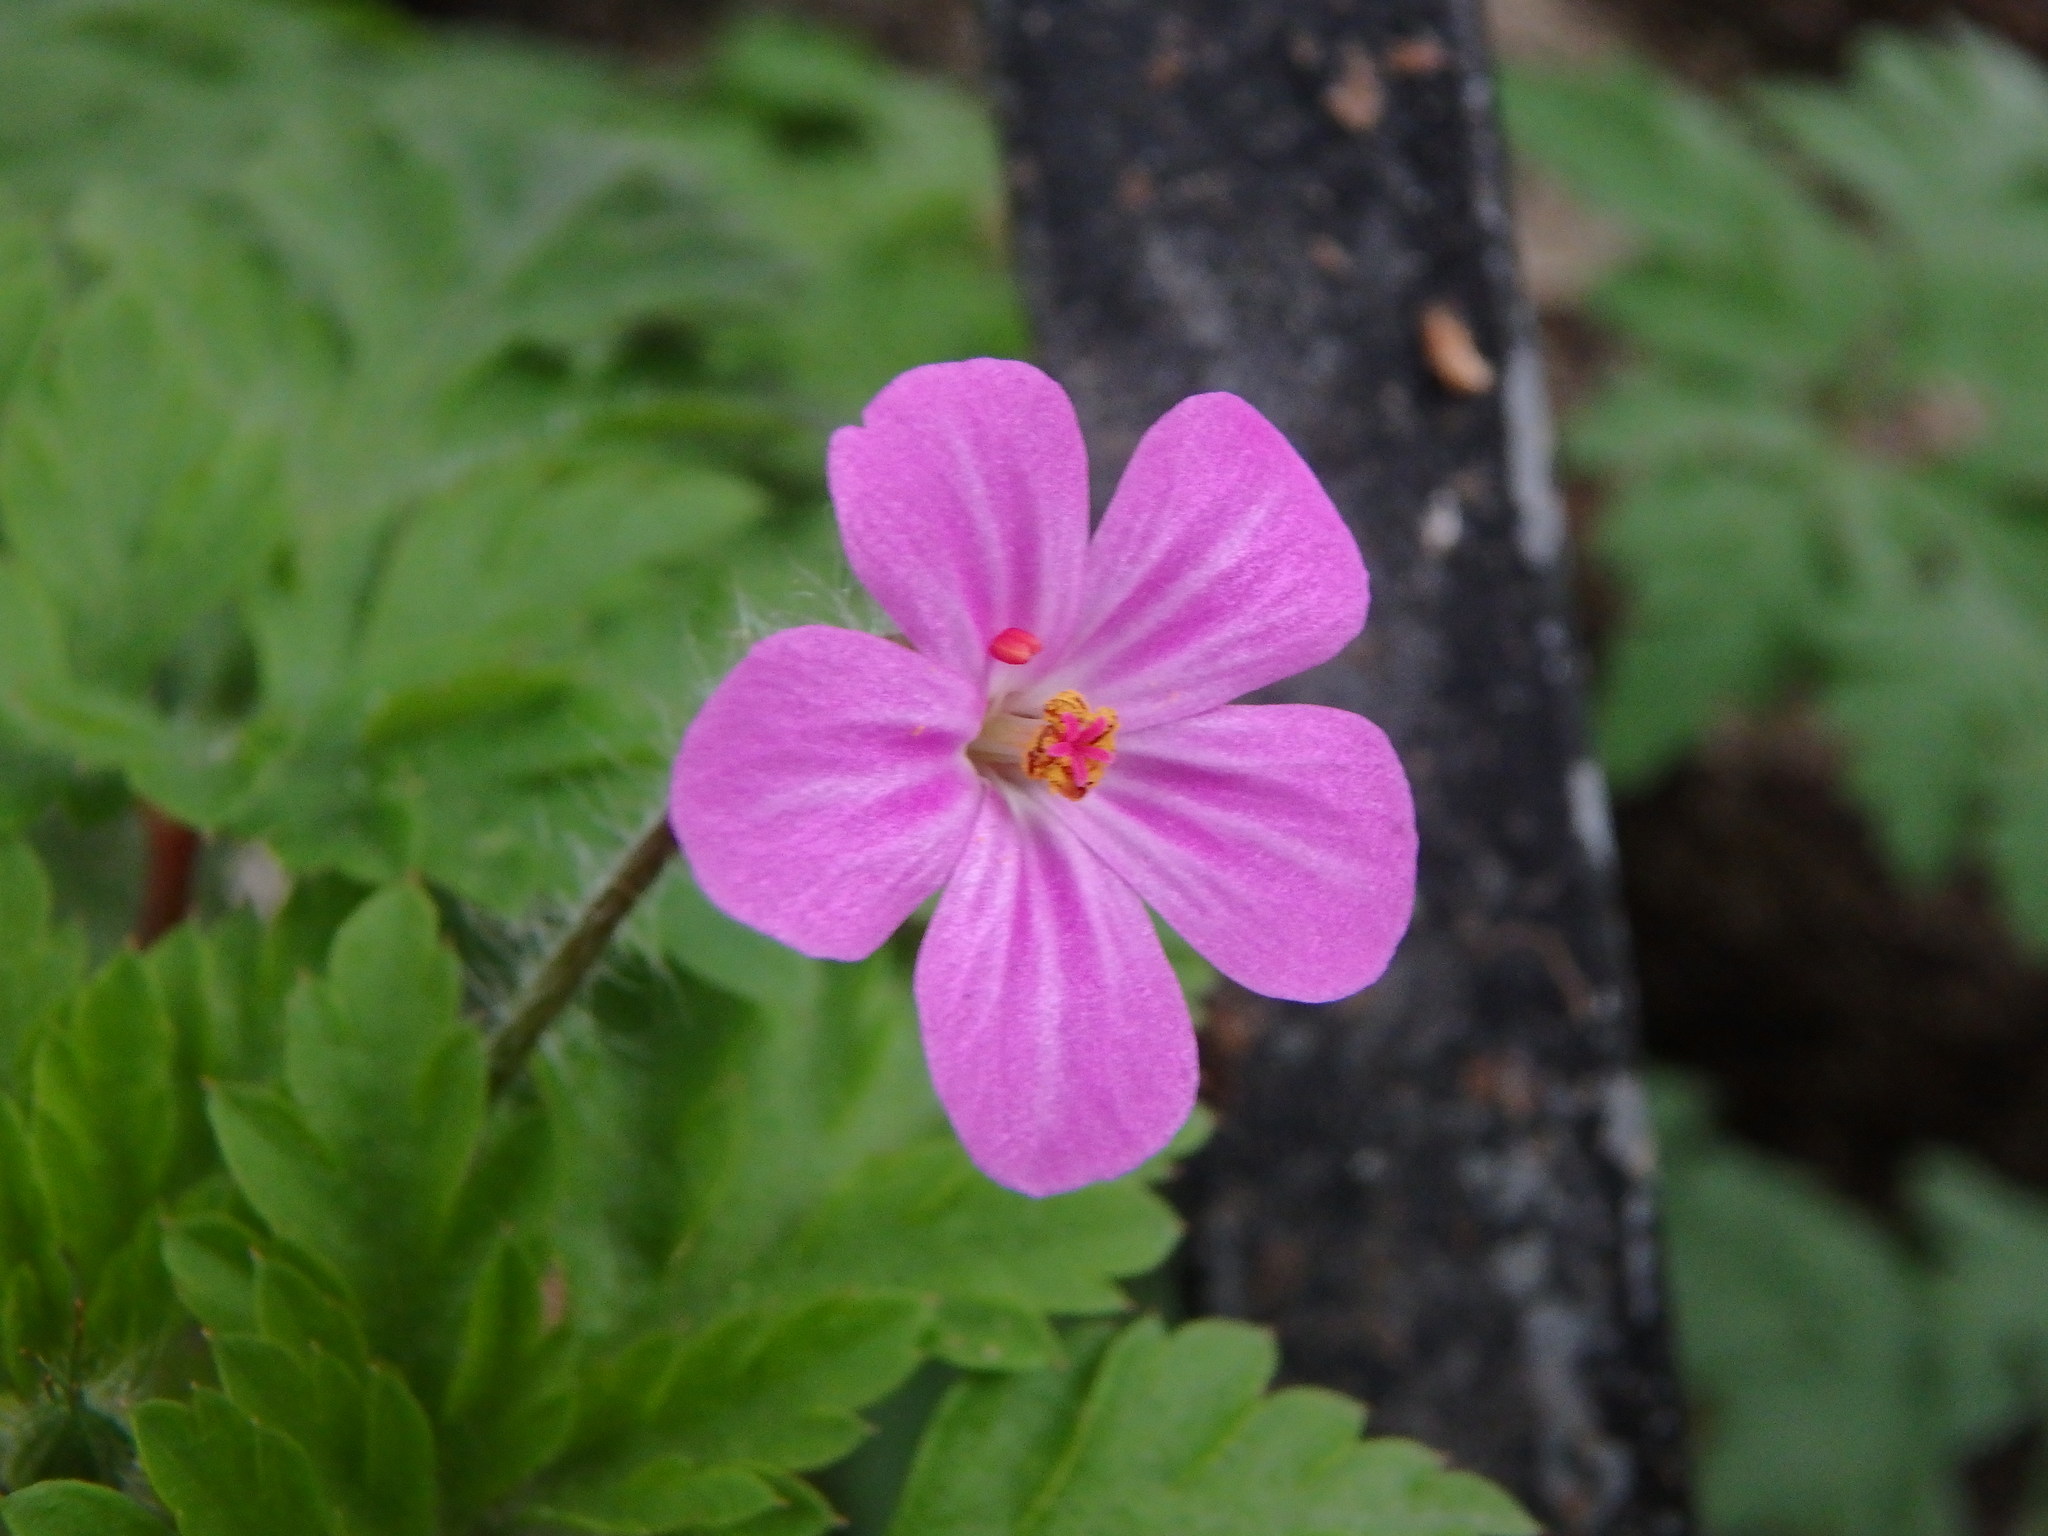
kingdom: Plantae
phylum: Tracheophyta
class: Magnoliopsida
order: Geraniales
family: Geraniaceae
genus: Geranium
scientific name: Geranium robertianum
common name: Herb-robert
